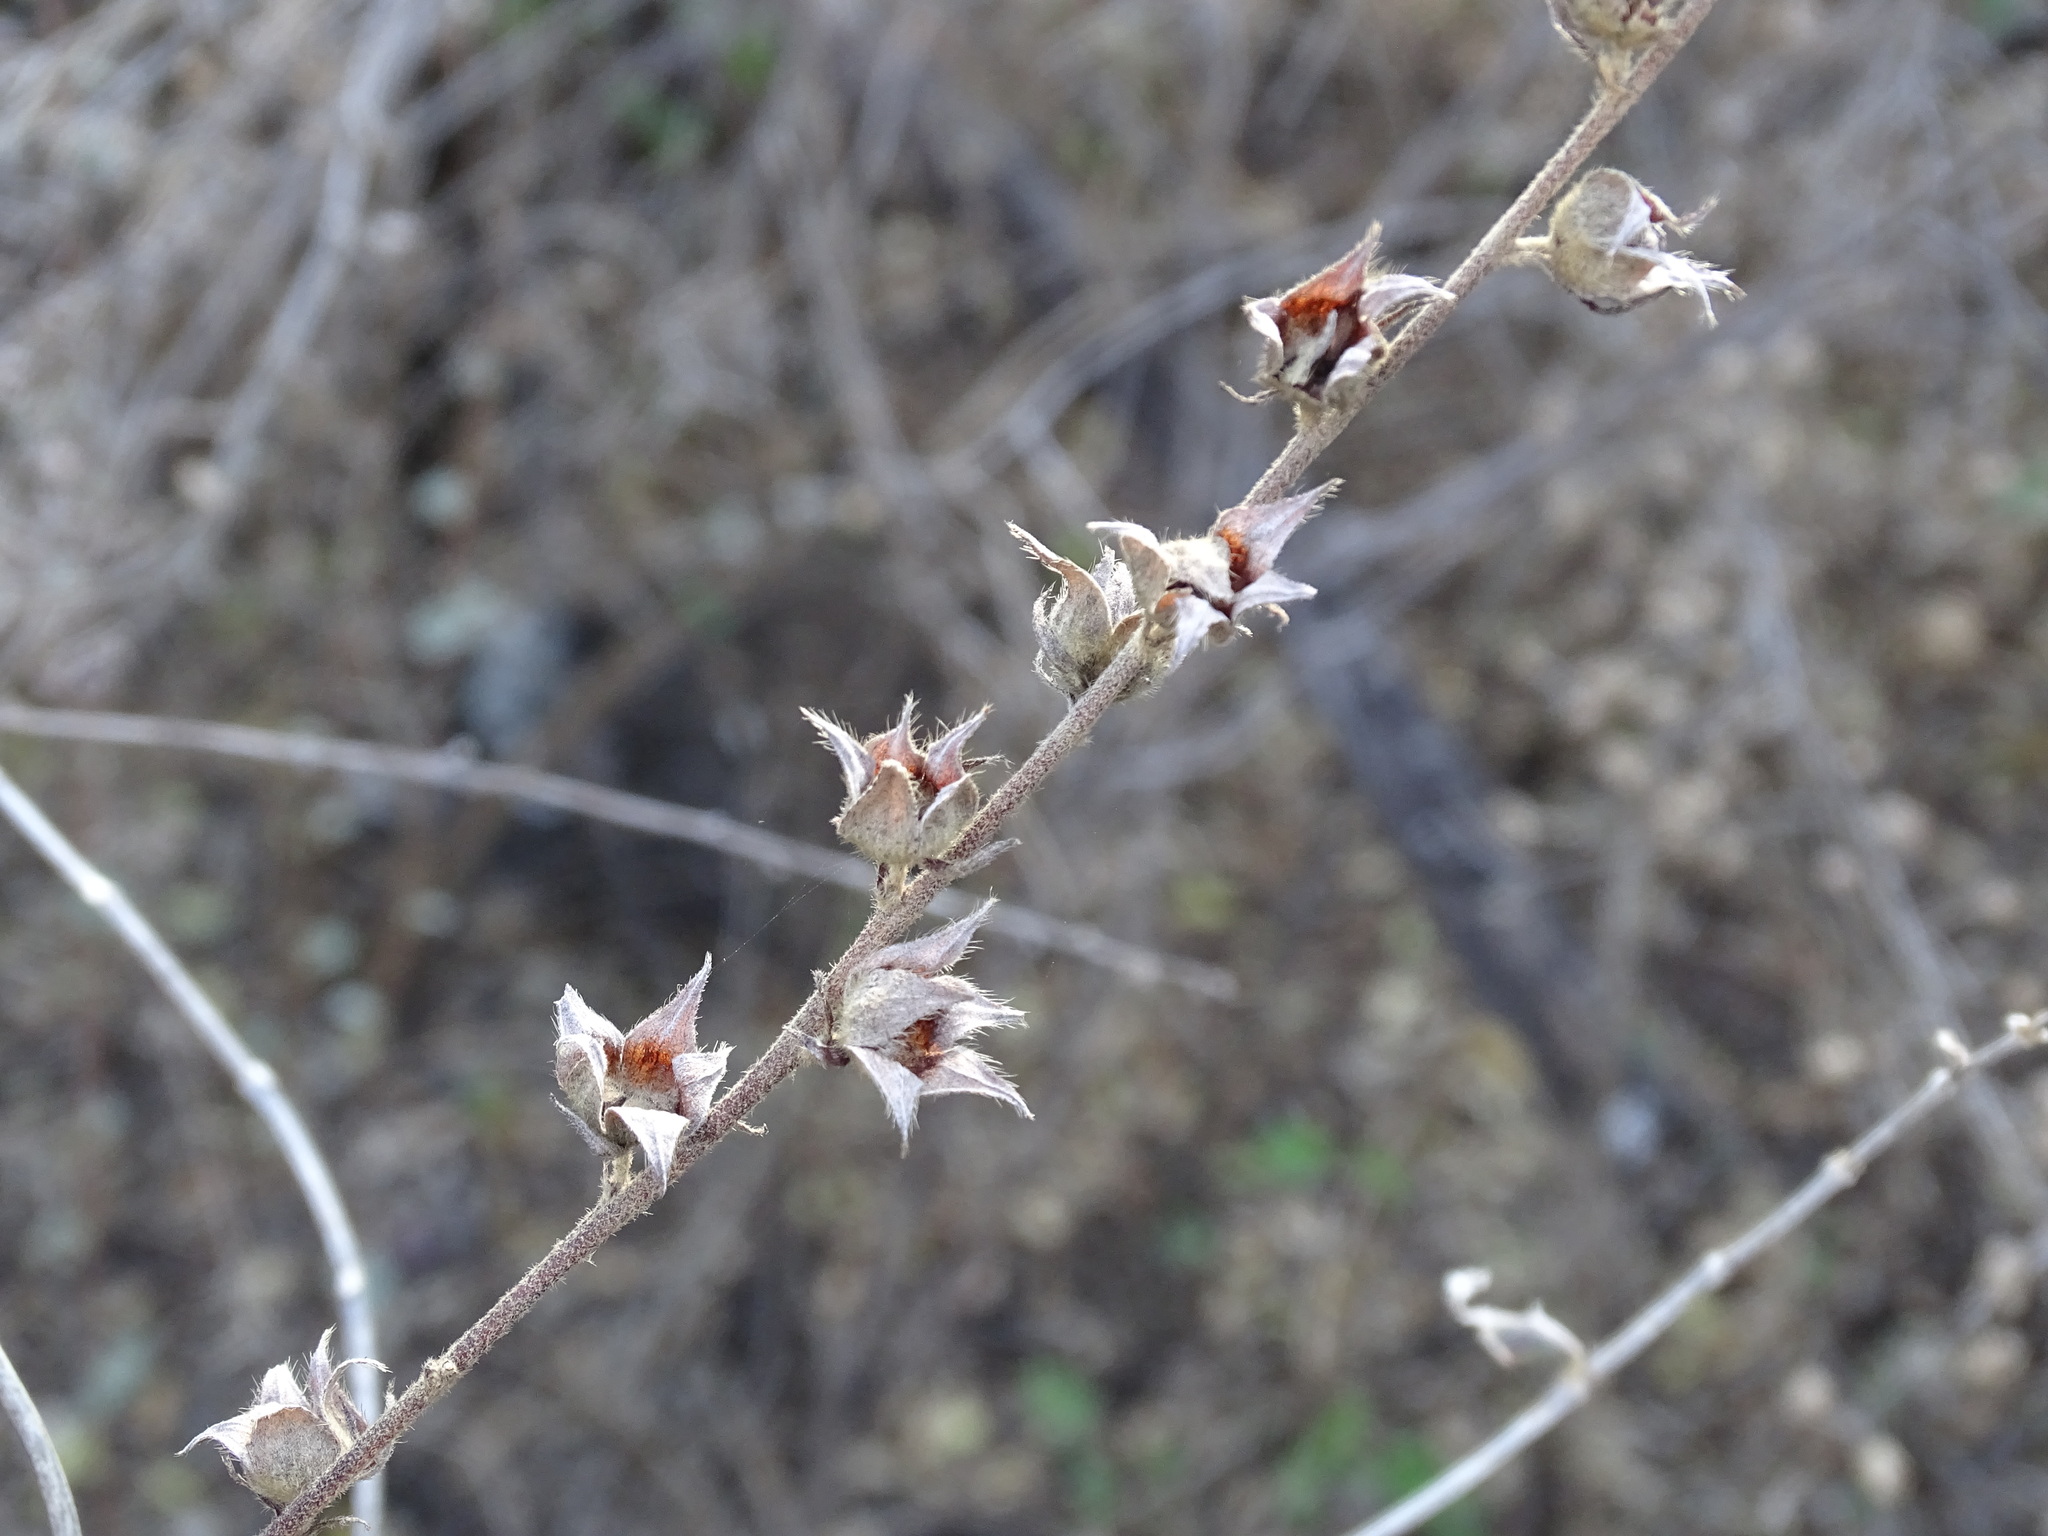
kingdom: Plantae
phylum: Tracheophyta
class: Magnoliopsida
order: Malvales
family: Malvaceae
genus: Malvastrum
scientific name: Malvastrum americanum
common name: Spiked malvastrum
